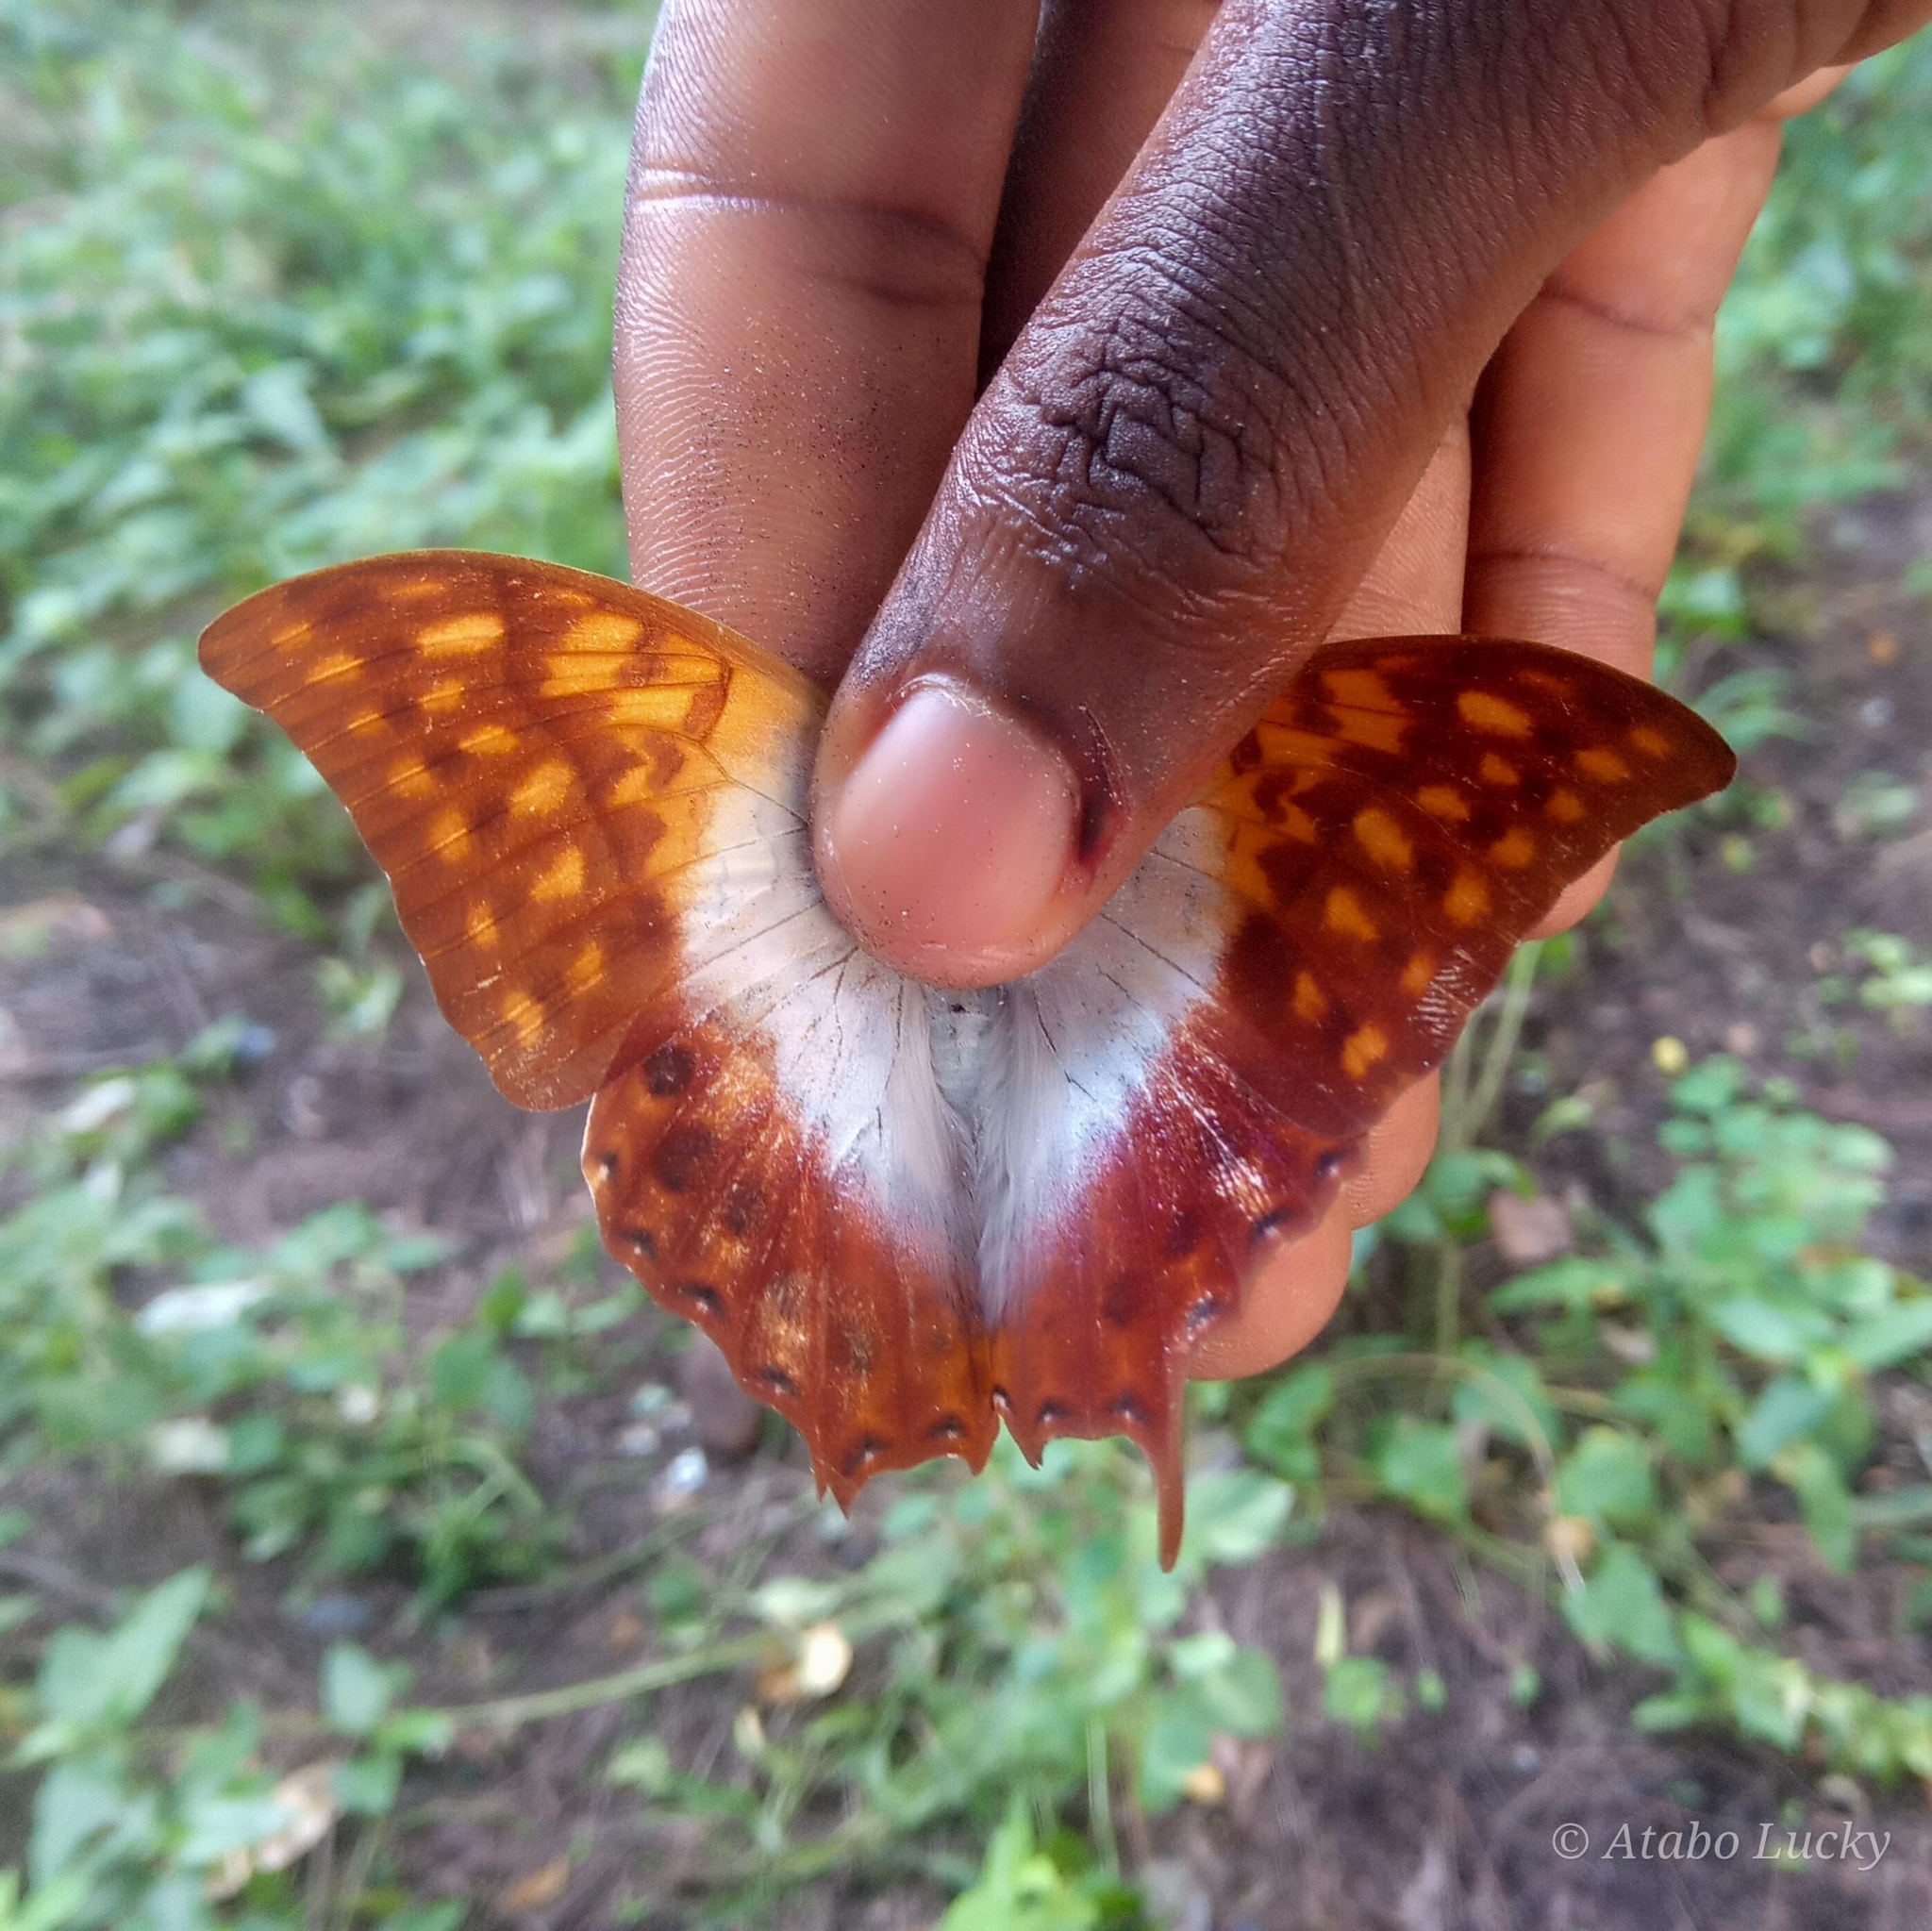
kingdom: Animalia
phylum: Arthropoda
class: Insecta
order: Lepidoptera
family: Nymphalidae
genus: Charaxes
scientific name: Charaxes varanes
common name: Common pearl charaxes
